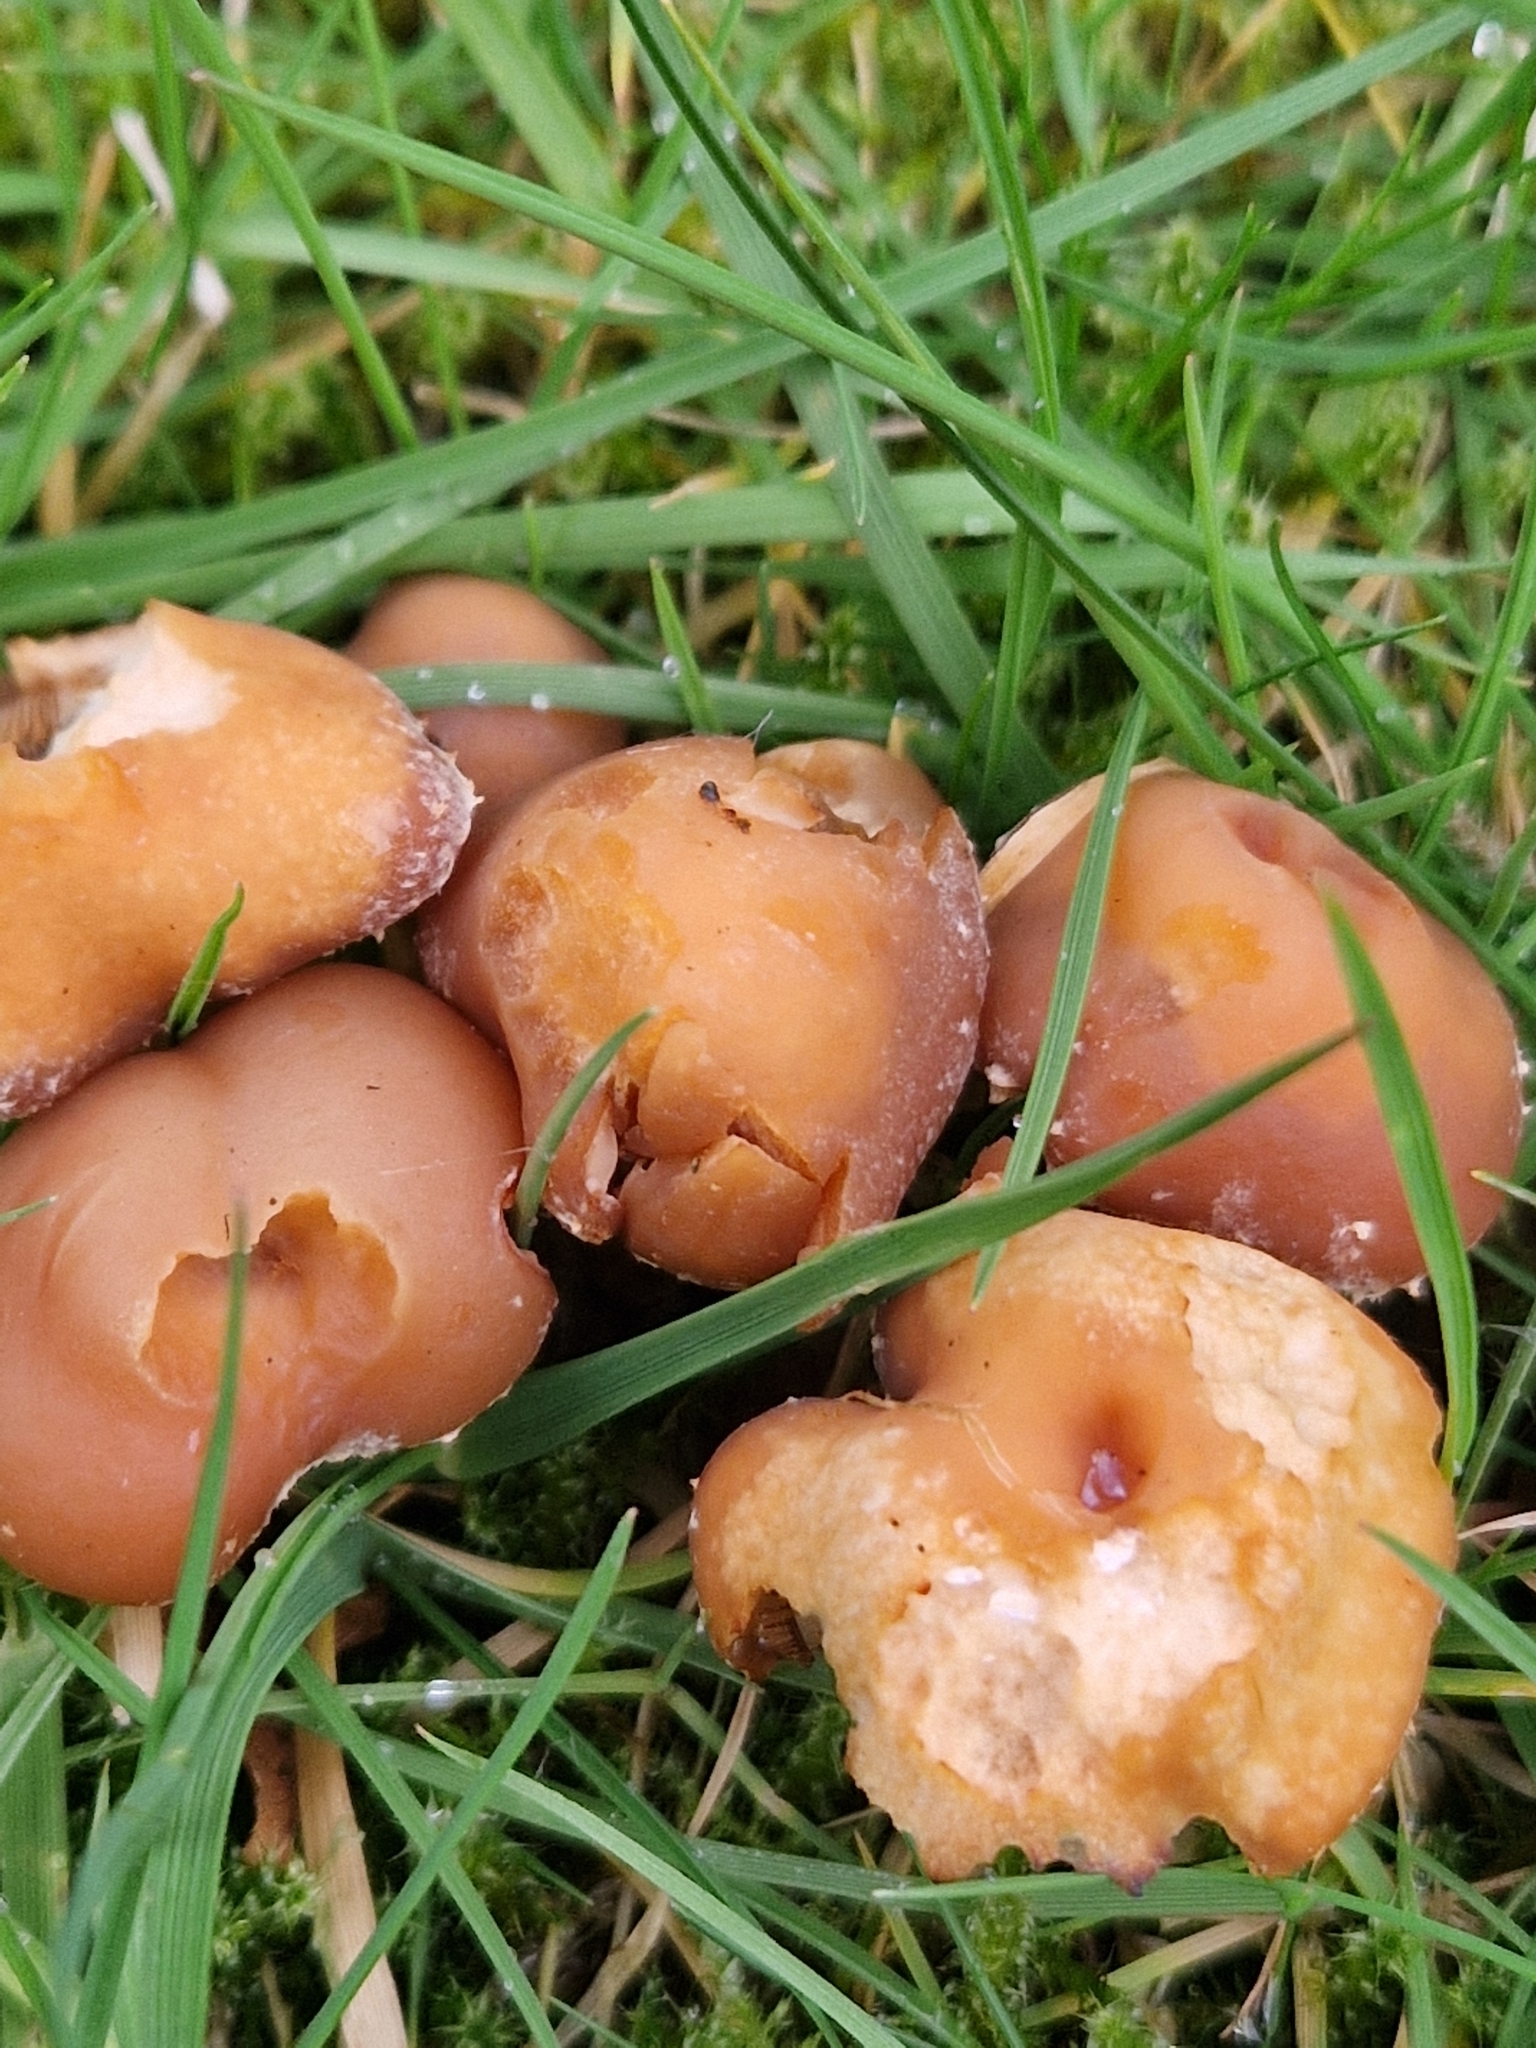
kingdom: Fungi
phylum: Basidiomycota
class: Agaricomycetes
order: Agaricales
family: Strophariaceae
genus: Kuehneromyces
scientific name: Kuehneromyces mutabilis
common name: Sheathed woodtuft
